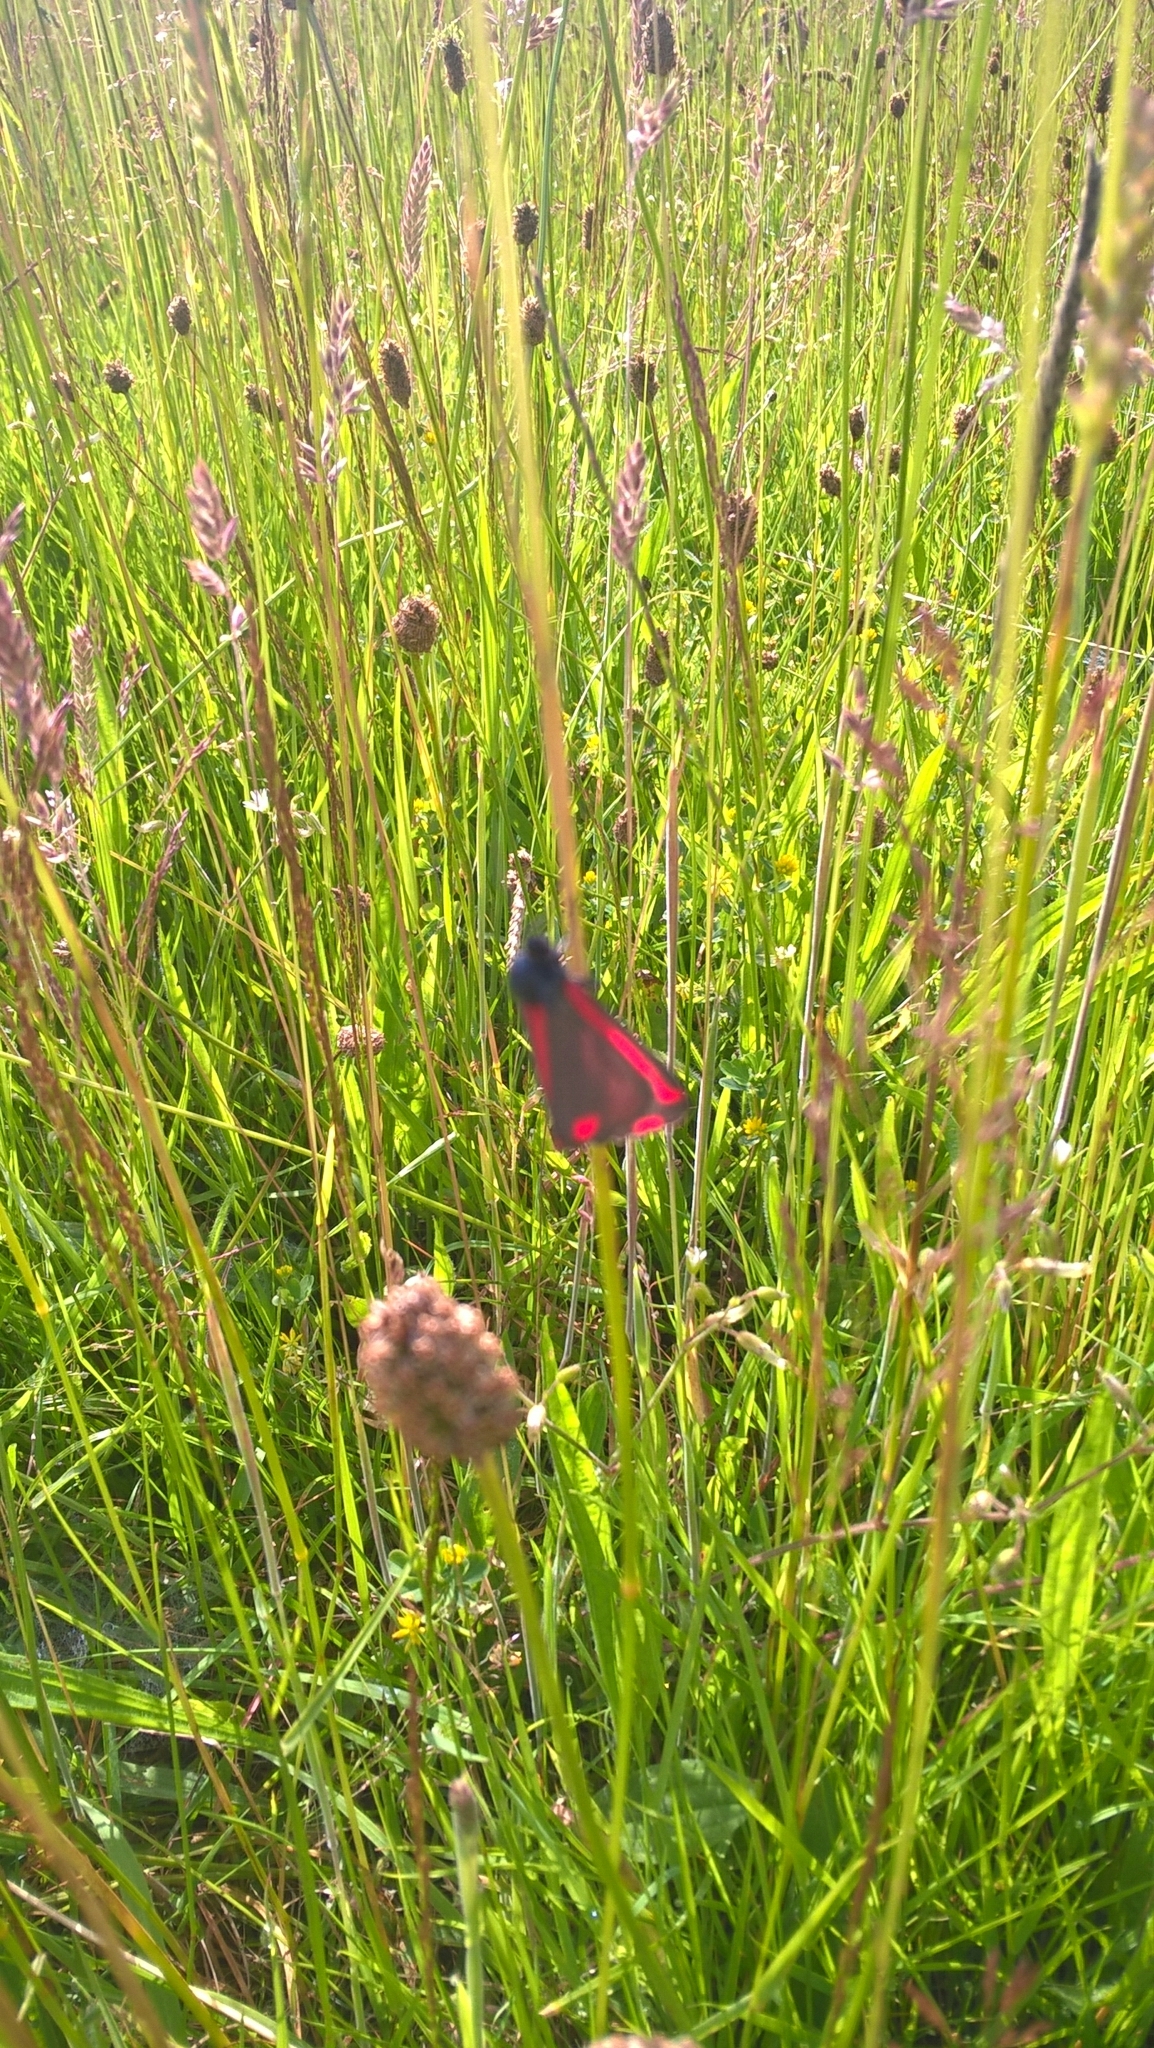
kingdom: Animalia
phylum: Arthropoda
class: Insecta
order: Lepidoptera
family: Erebidae
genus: Tyria
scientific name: Tyria jacobaeae
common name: Cinnabar
